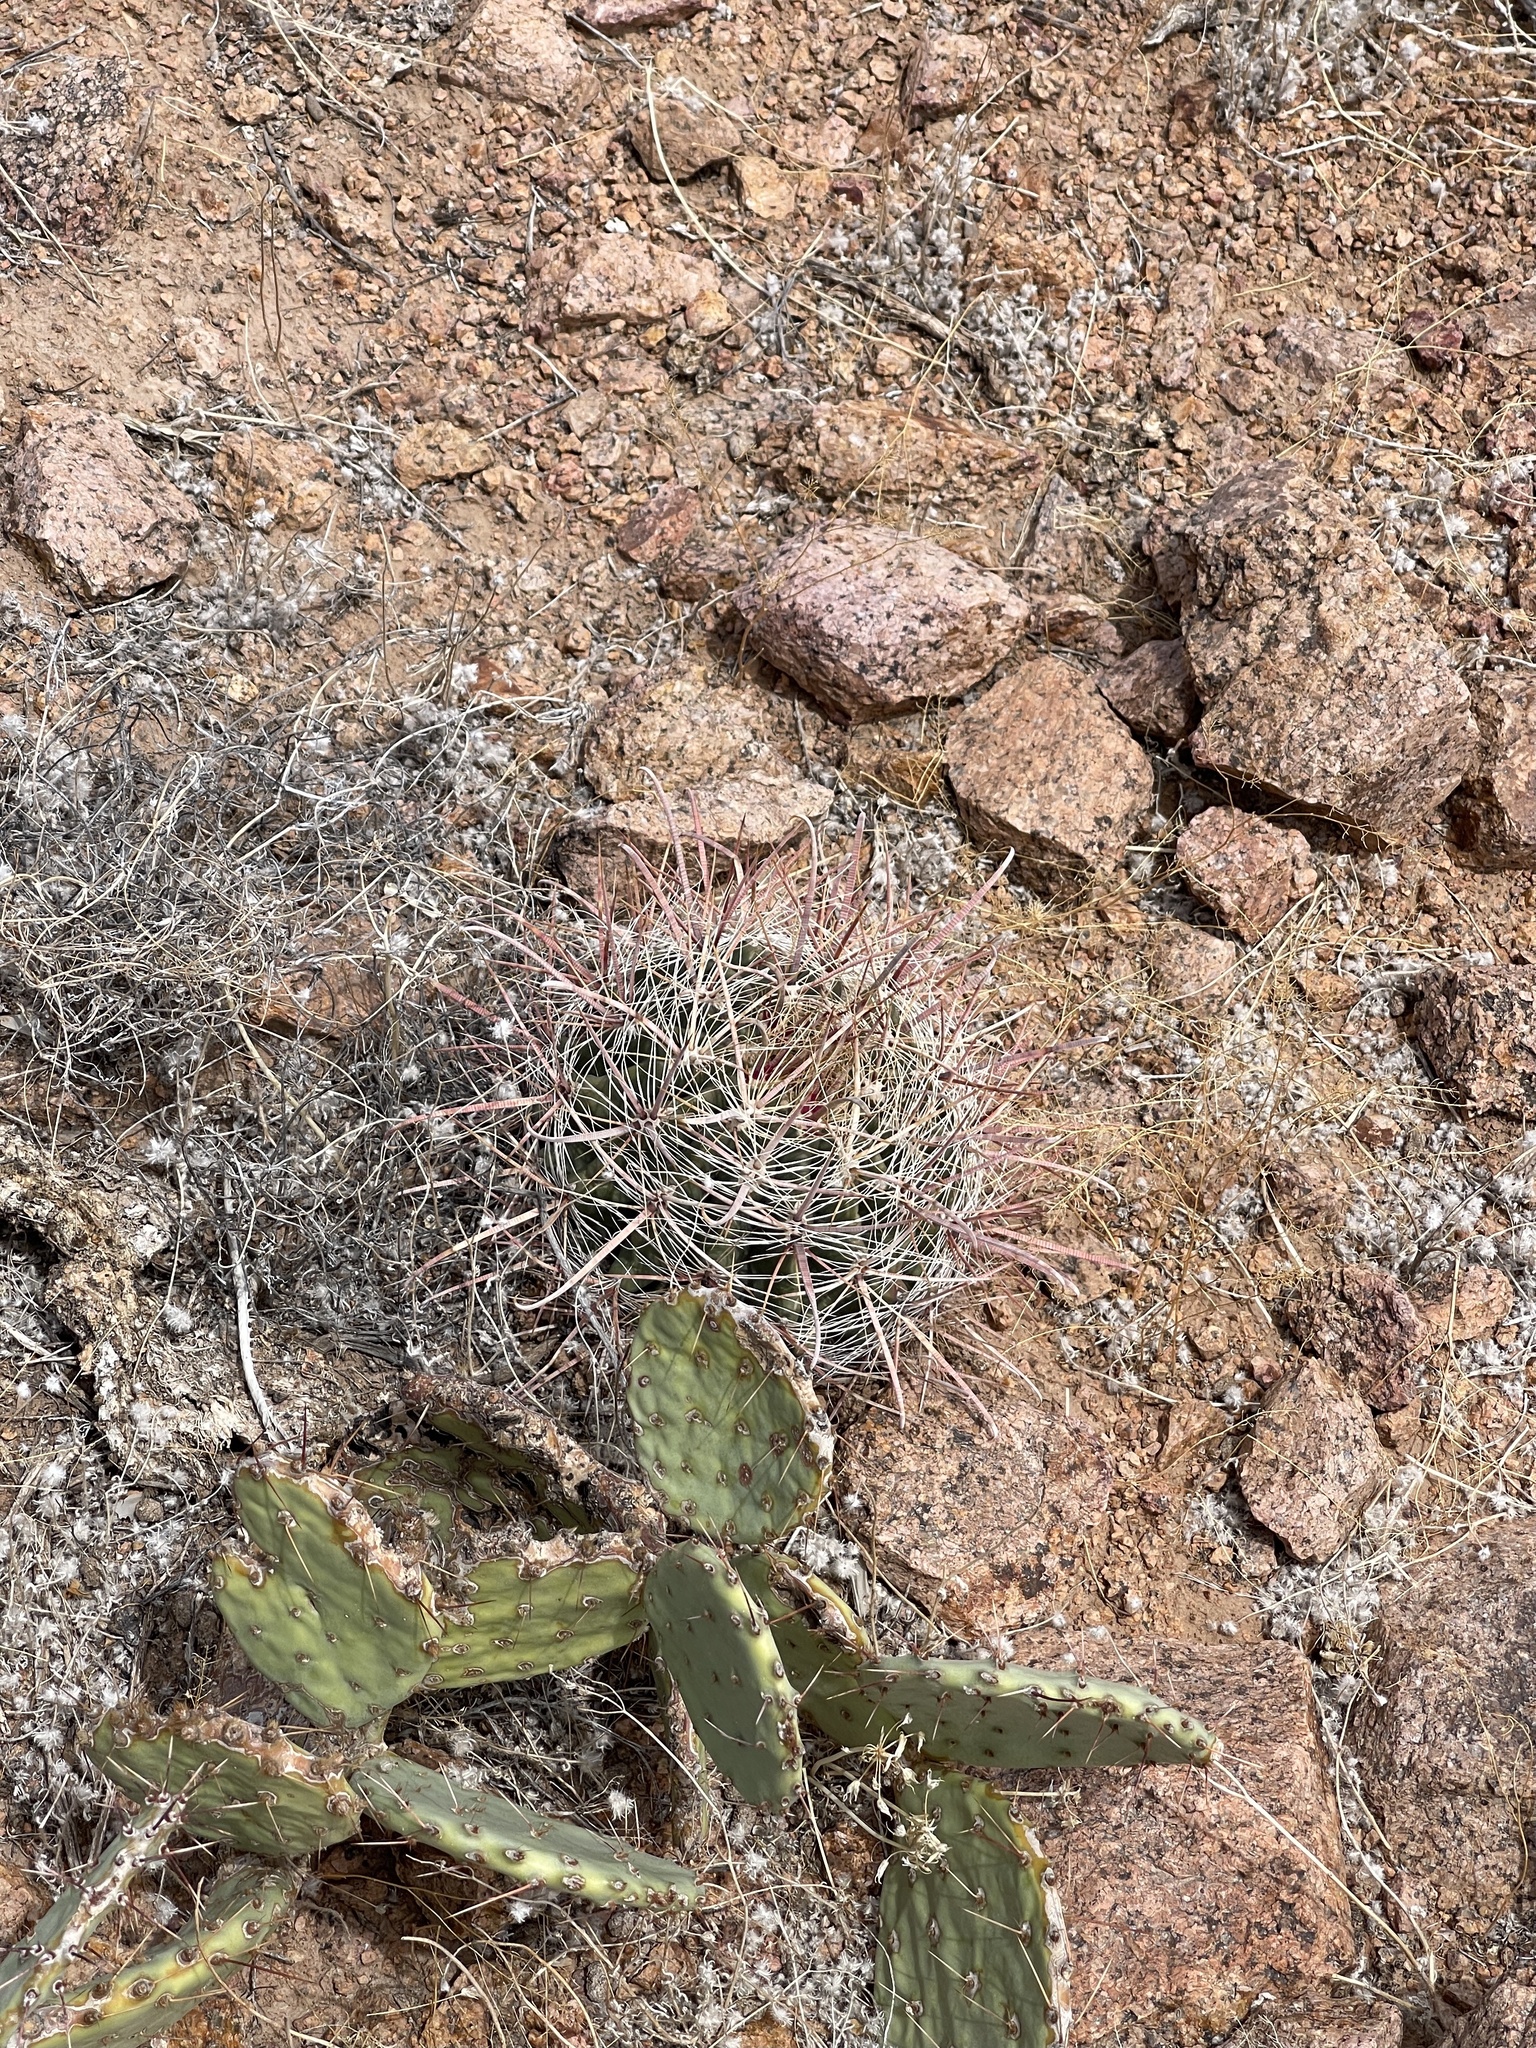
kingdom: Plantae
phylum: Tracheophyta
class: Magnoliopsida
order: Caryophyllales
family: Cactaceae
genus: Ferocactus
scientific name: Ferocactus wislizeni
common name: Candy barrel cactus
